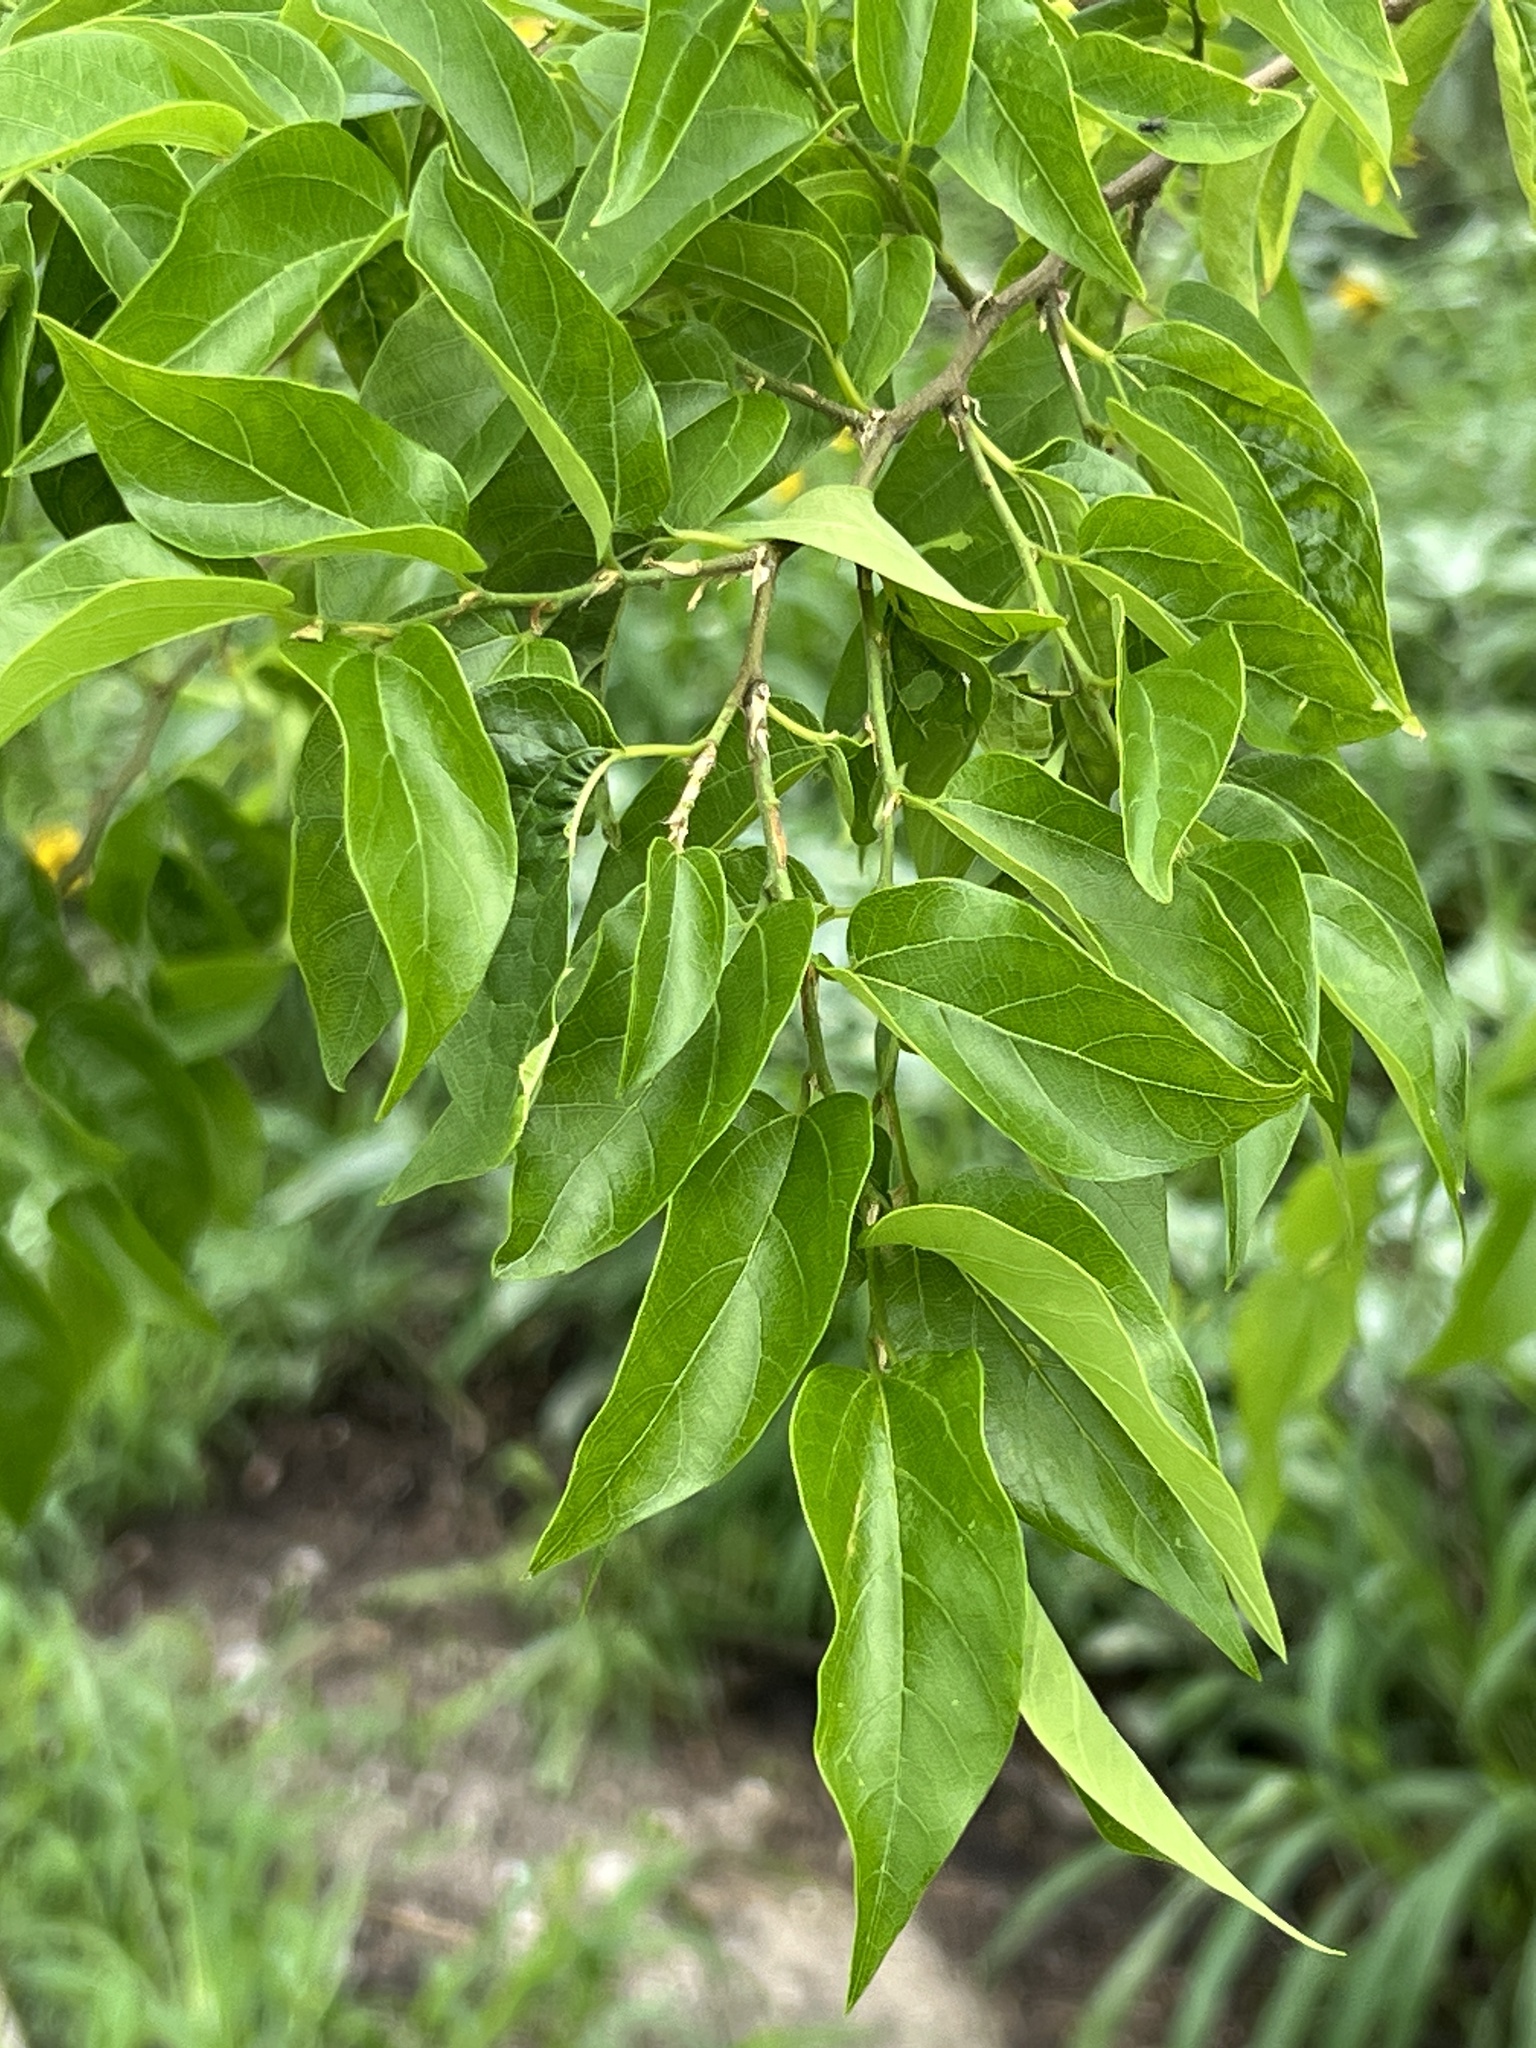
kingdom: Plantae
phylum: Tracheophyta
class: Magnoliopsida
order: Rosales
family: Cannabaceae
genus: Celtis
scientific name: Celtis laevigata
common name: Sugarberry
